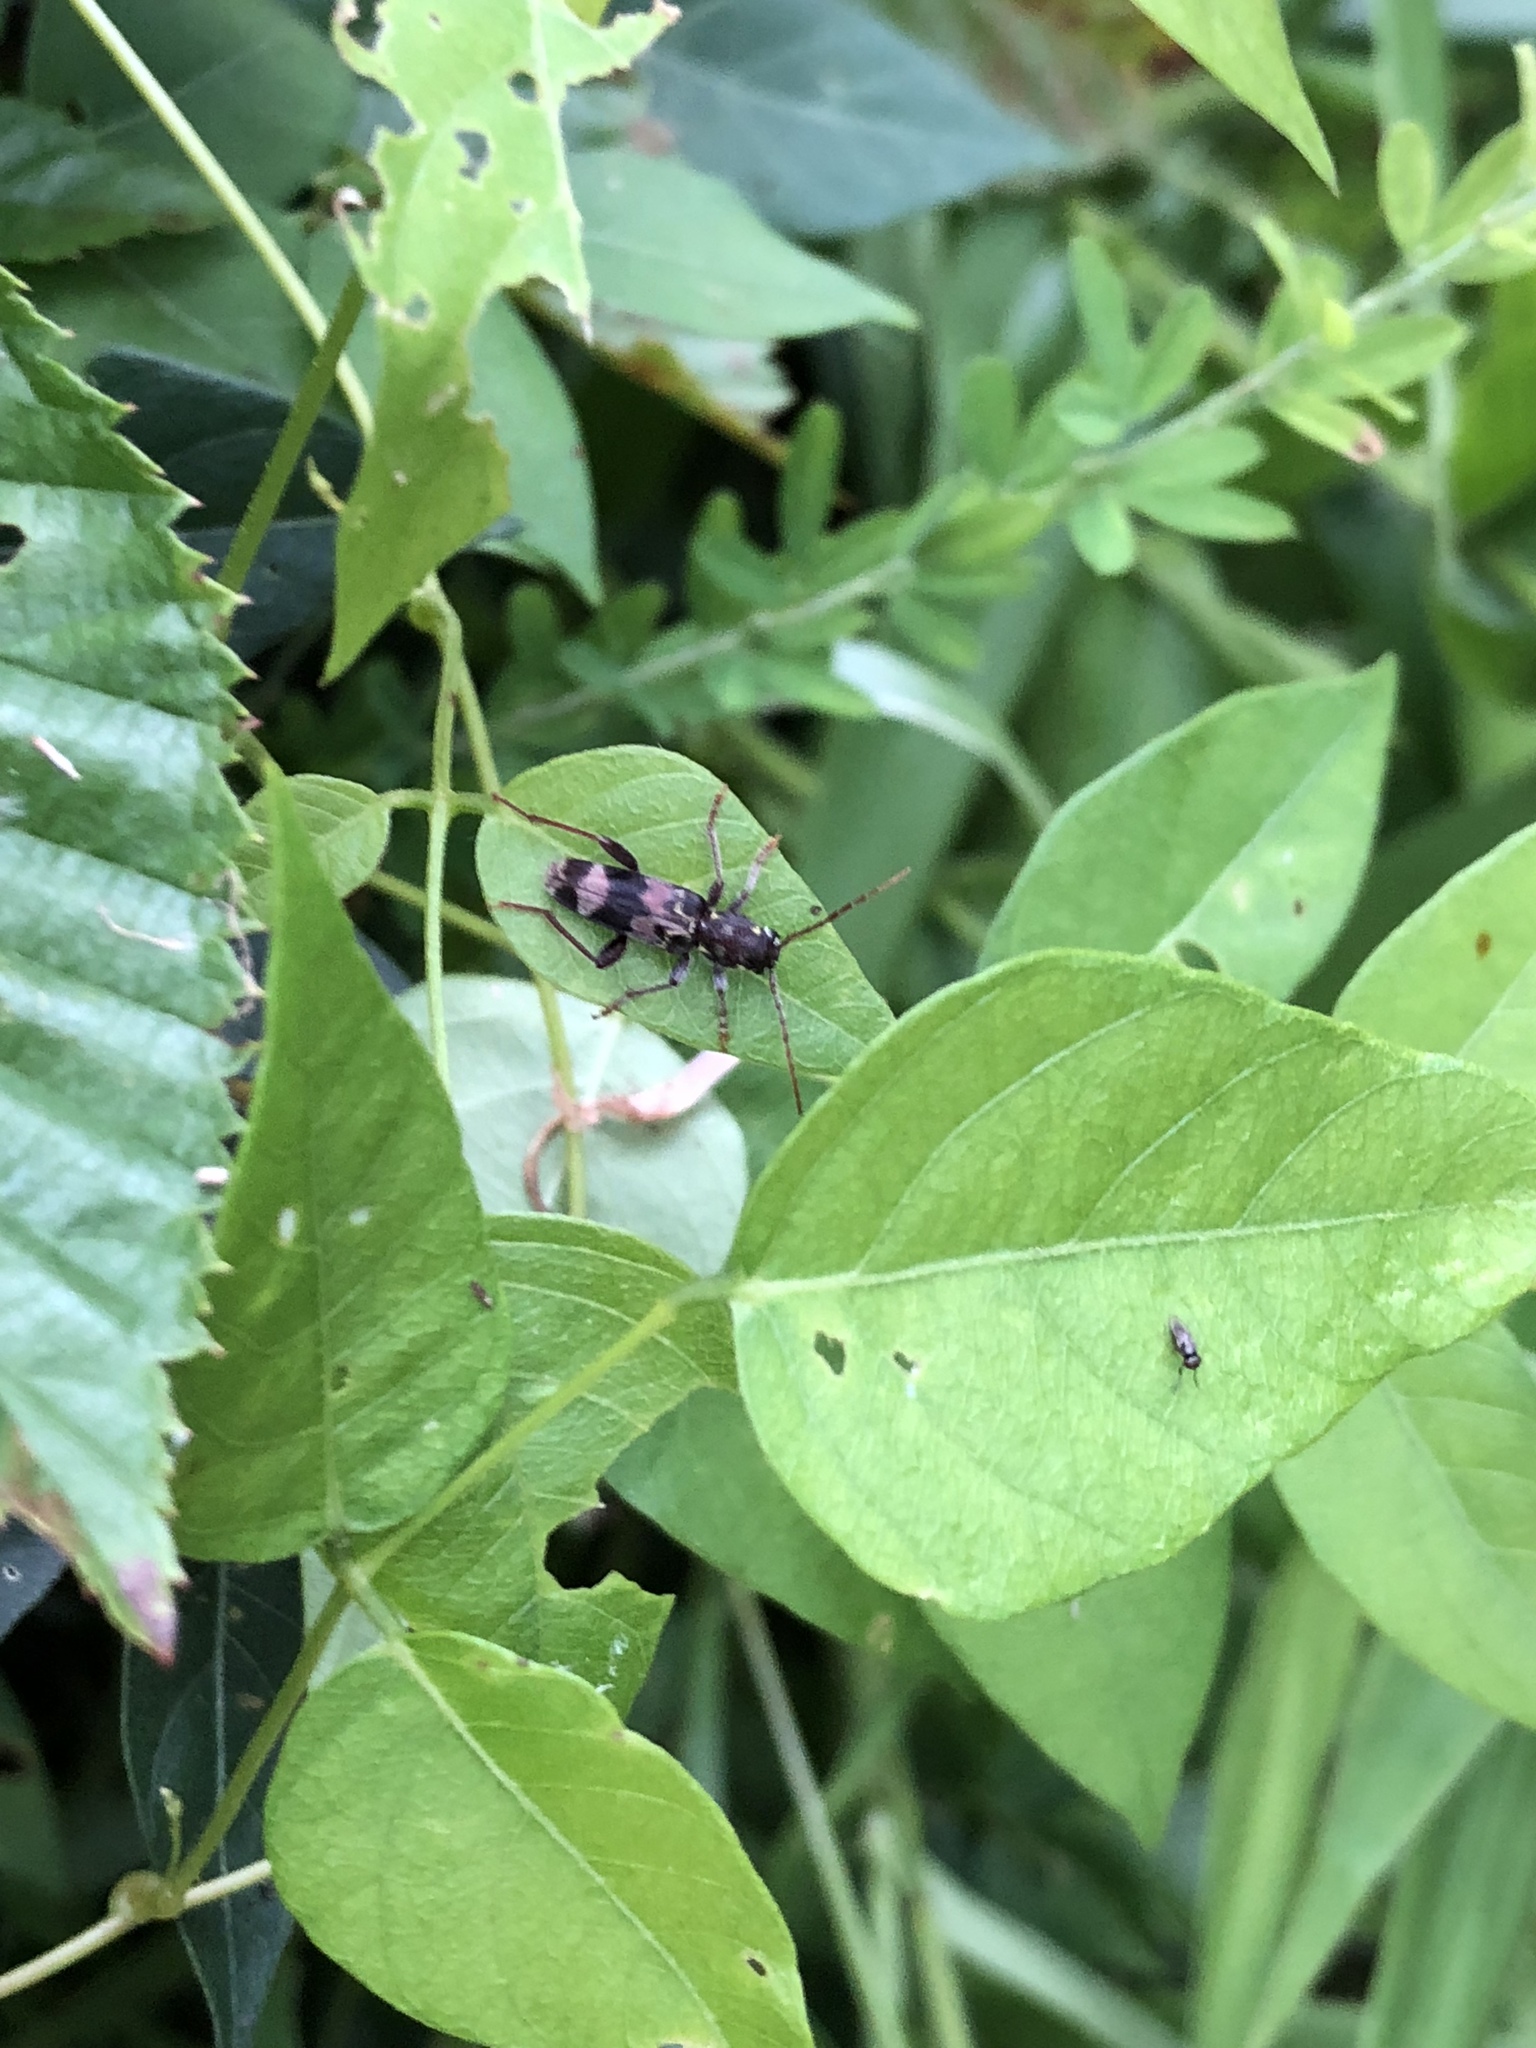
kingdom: Animalia
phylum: Arthropoda
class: Insecta
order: Coleoptera
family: Cerambycidae
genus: Xylotrechus
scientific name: Xylotrechus colonus
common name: Long-horned beetle
